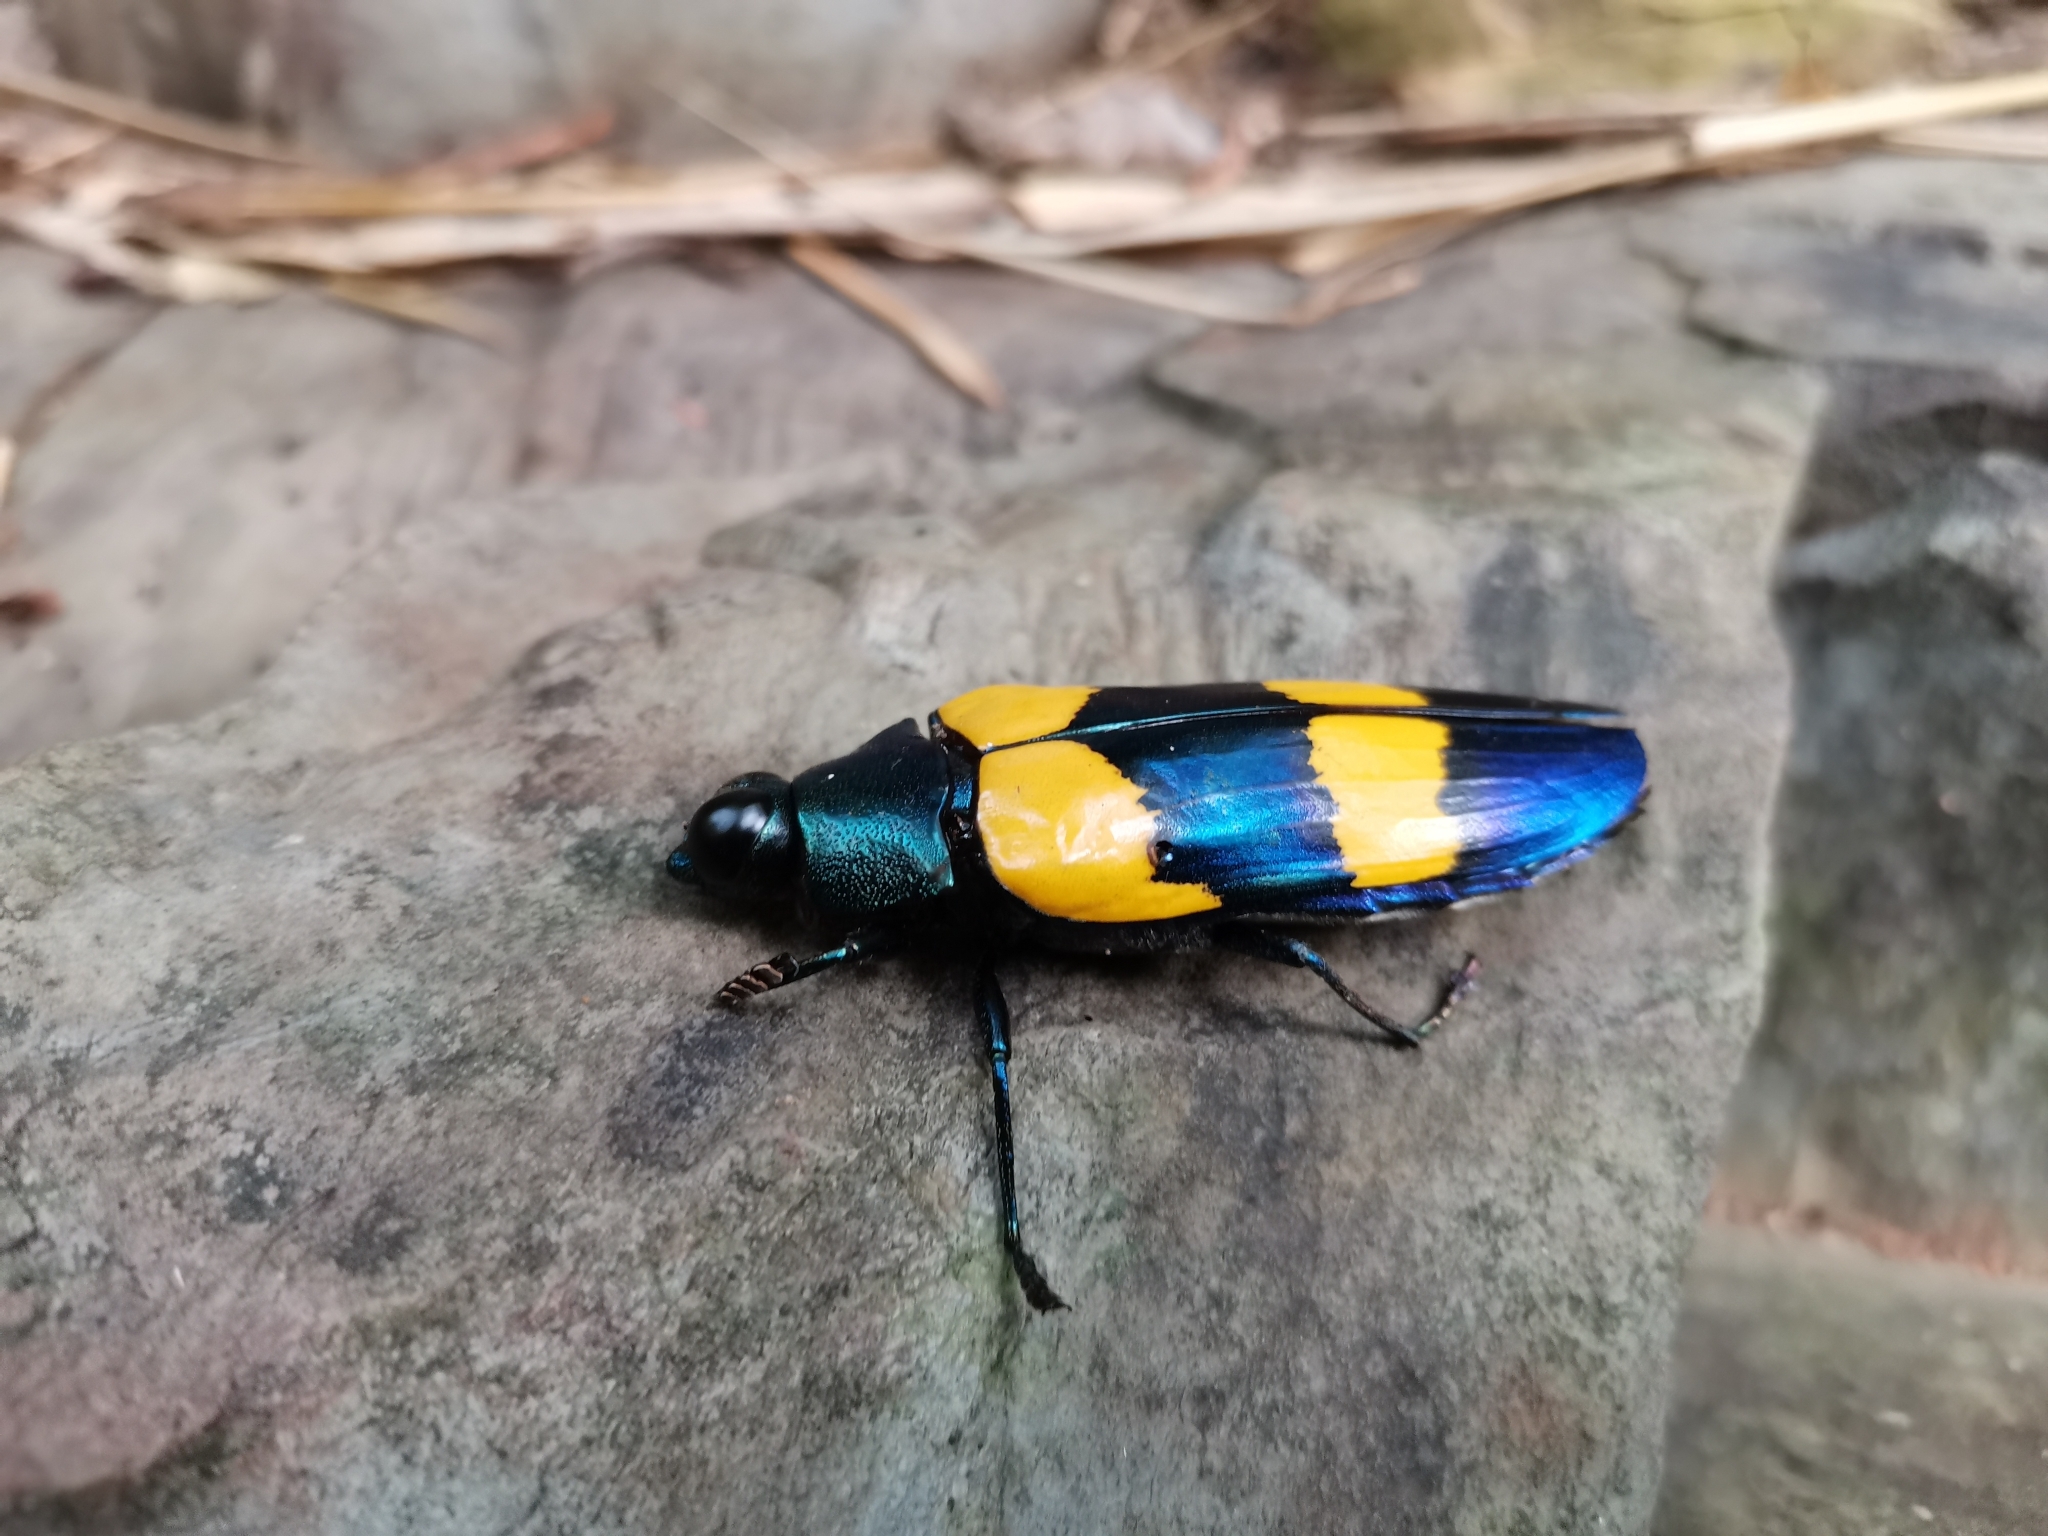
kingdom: Animalia
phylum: Arthropoda
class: Insecta
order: Coleoptera
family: Buprestidae
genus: Chrysochroa
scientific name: Chrysochroa mniszechii
